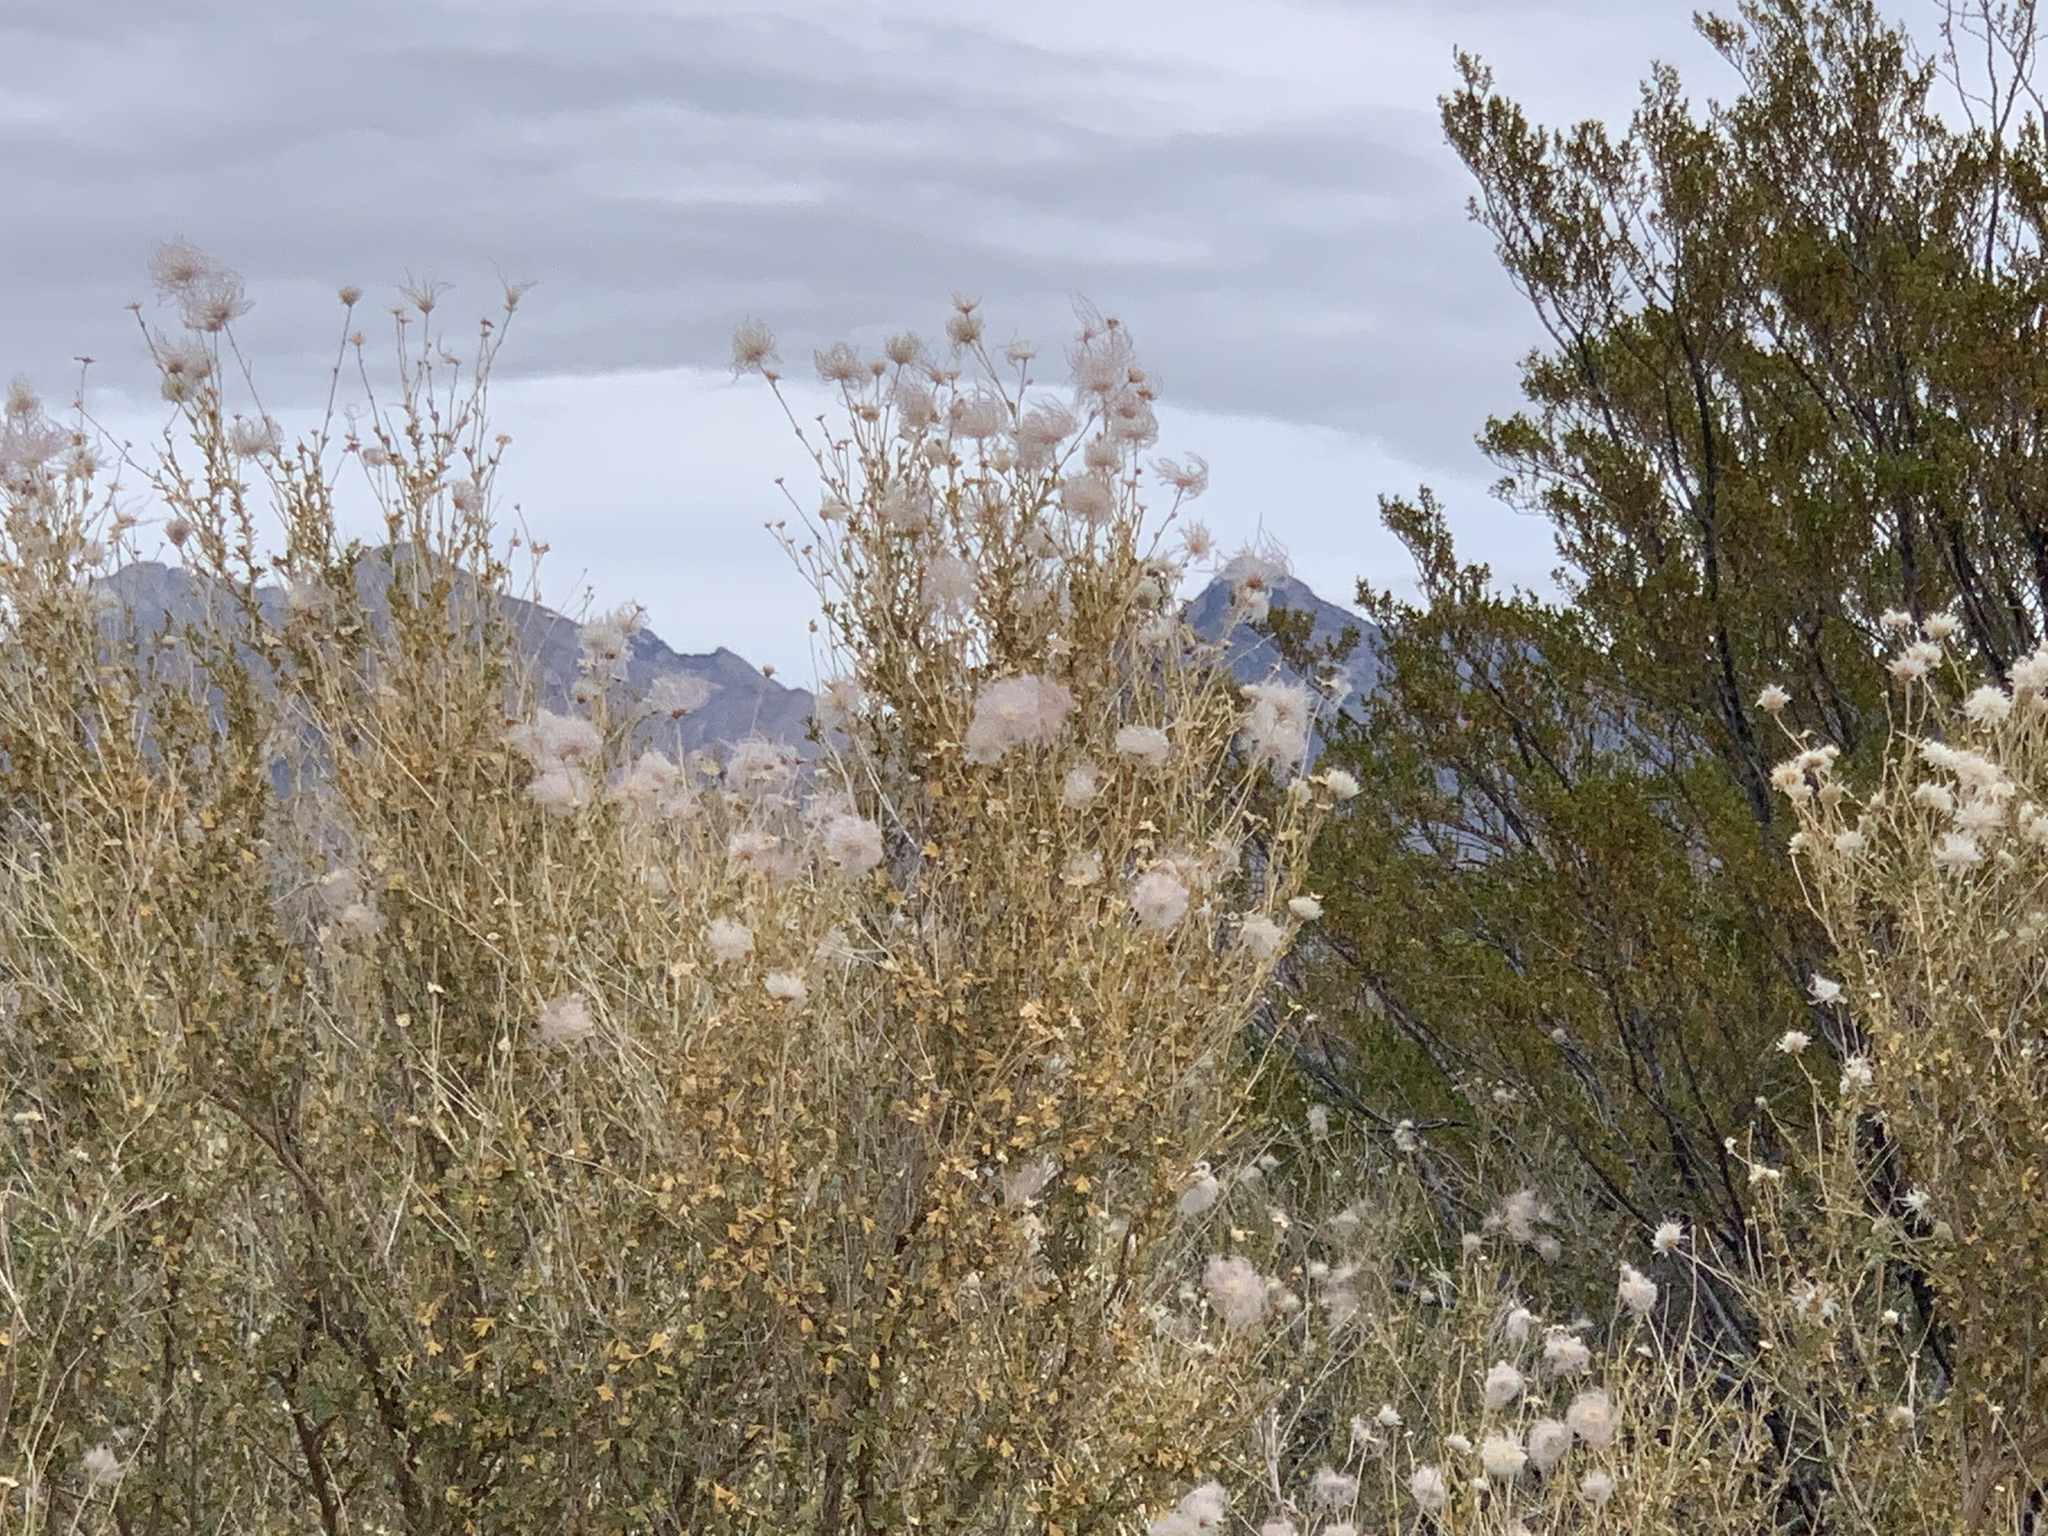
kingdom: Plantae
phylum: Tracheophyta
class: Magnoliopsida
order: Rosales
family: Rosaceae
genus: Fallugia
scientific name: Fallugia paradoxa
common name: Apache-plume
